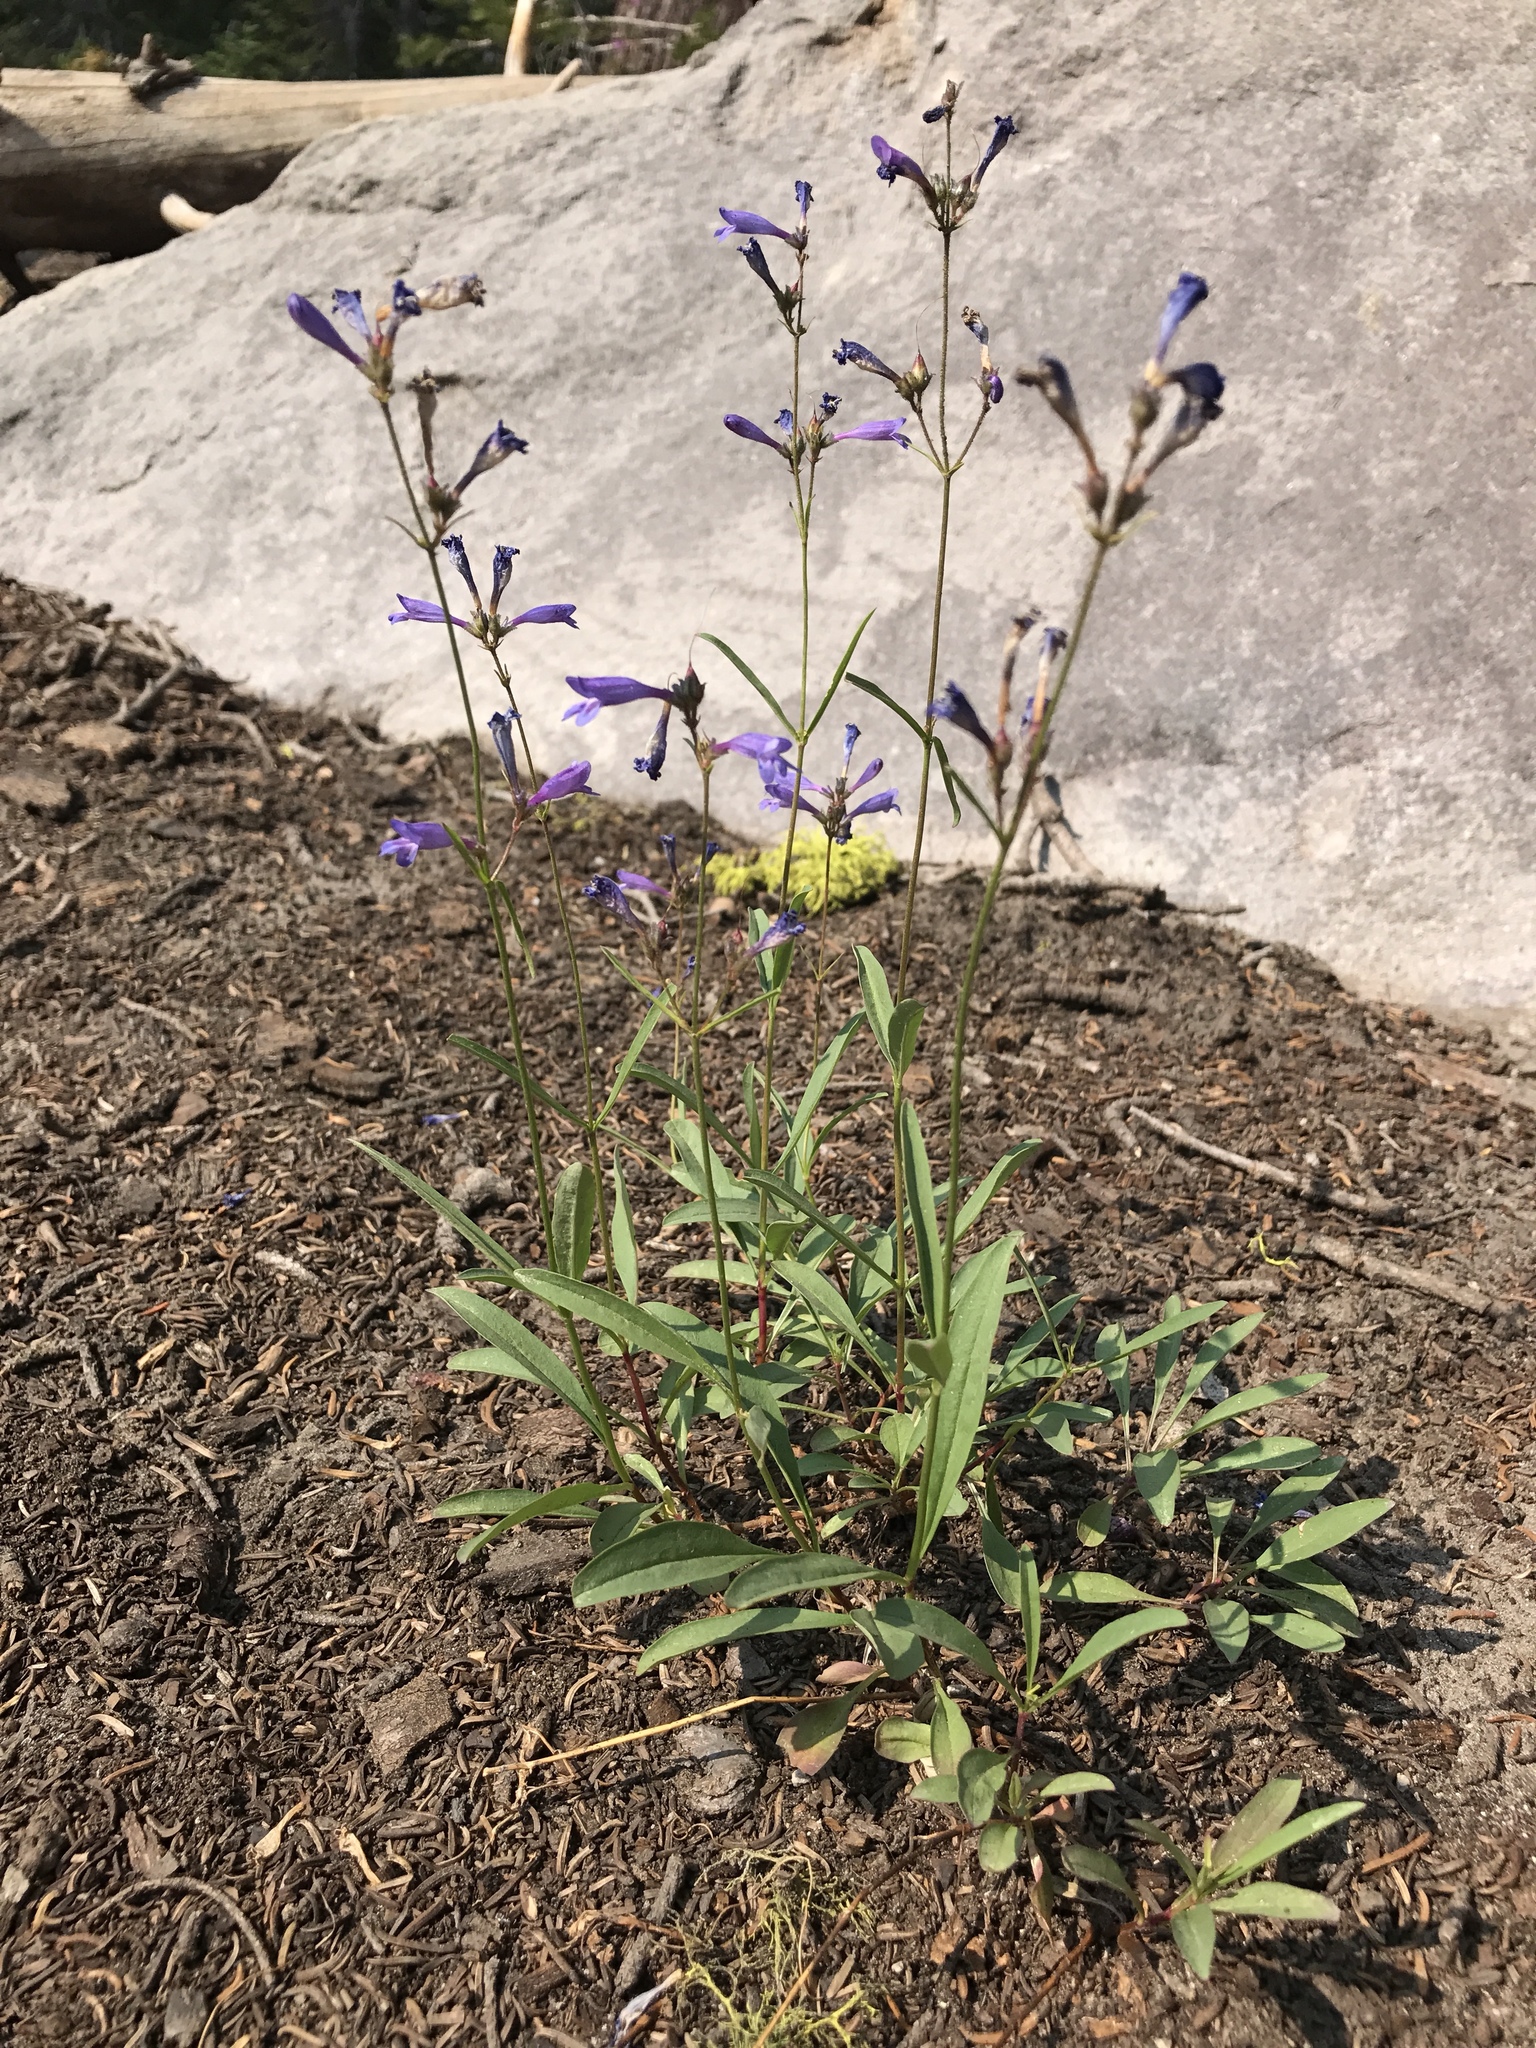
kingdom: Plantae
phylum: Tracheophyta
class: Magnoliopsida
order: Lamiales
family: Plantaginaceae
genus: Penstemon
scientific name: Penstemon gracilentus
